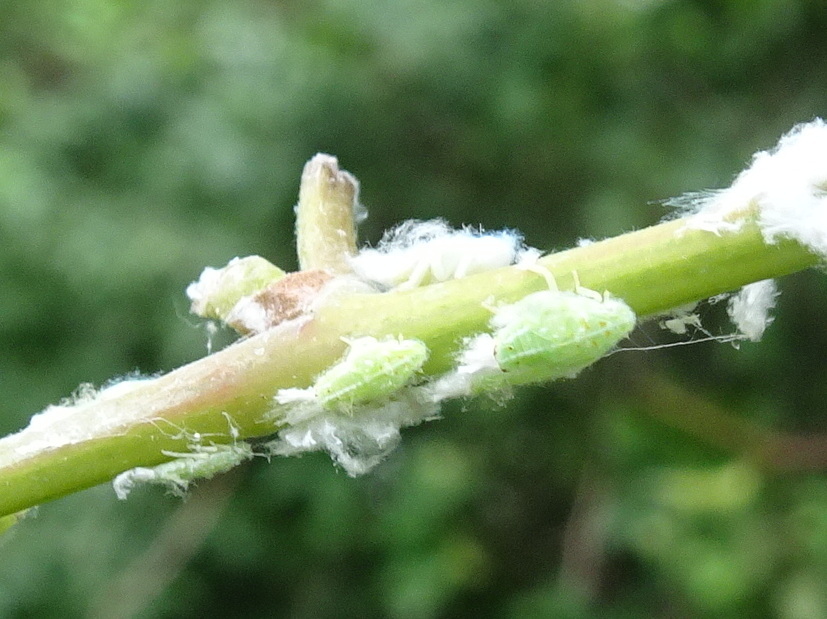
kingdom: Animalia
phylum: Arthropoda
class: Insecta
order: Hemiptera
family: Flatidae
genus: Ormenoides
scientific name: Ormenoides venusta
